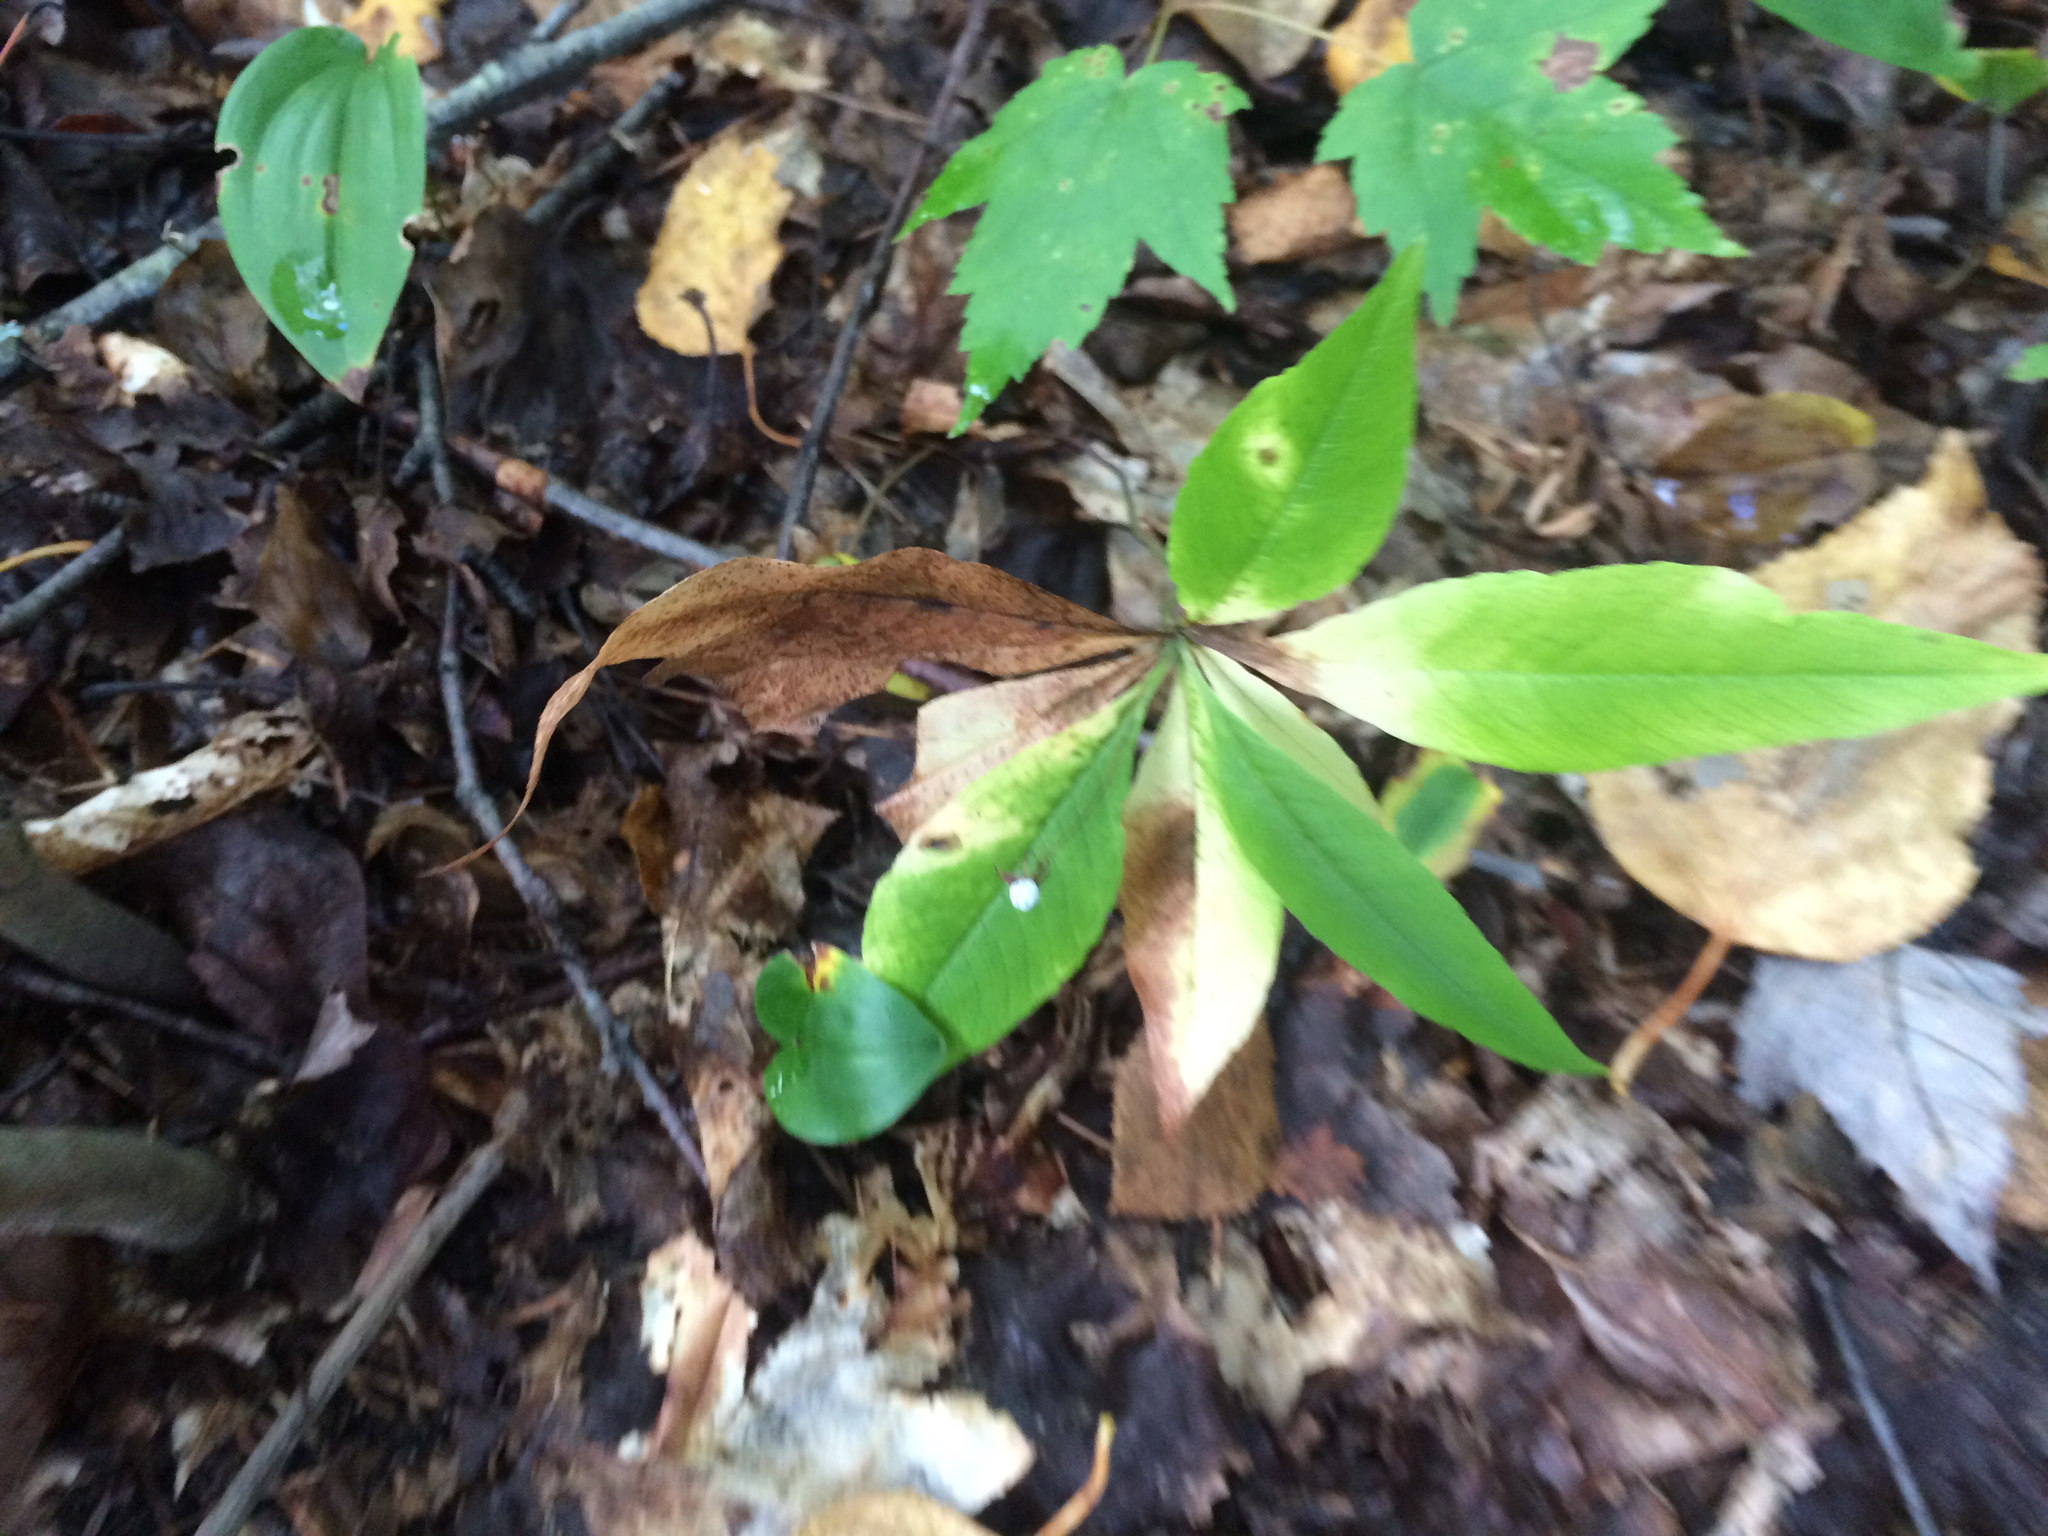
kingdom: Plantae
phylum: Tracheophyta
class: Magnoliopsida
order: Ericales
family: Primulaceae
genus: Lysimachia
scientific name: Lysimachia borealis
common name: American starflower
